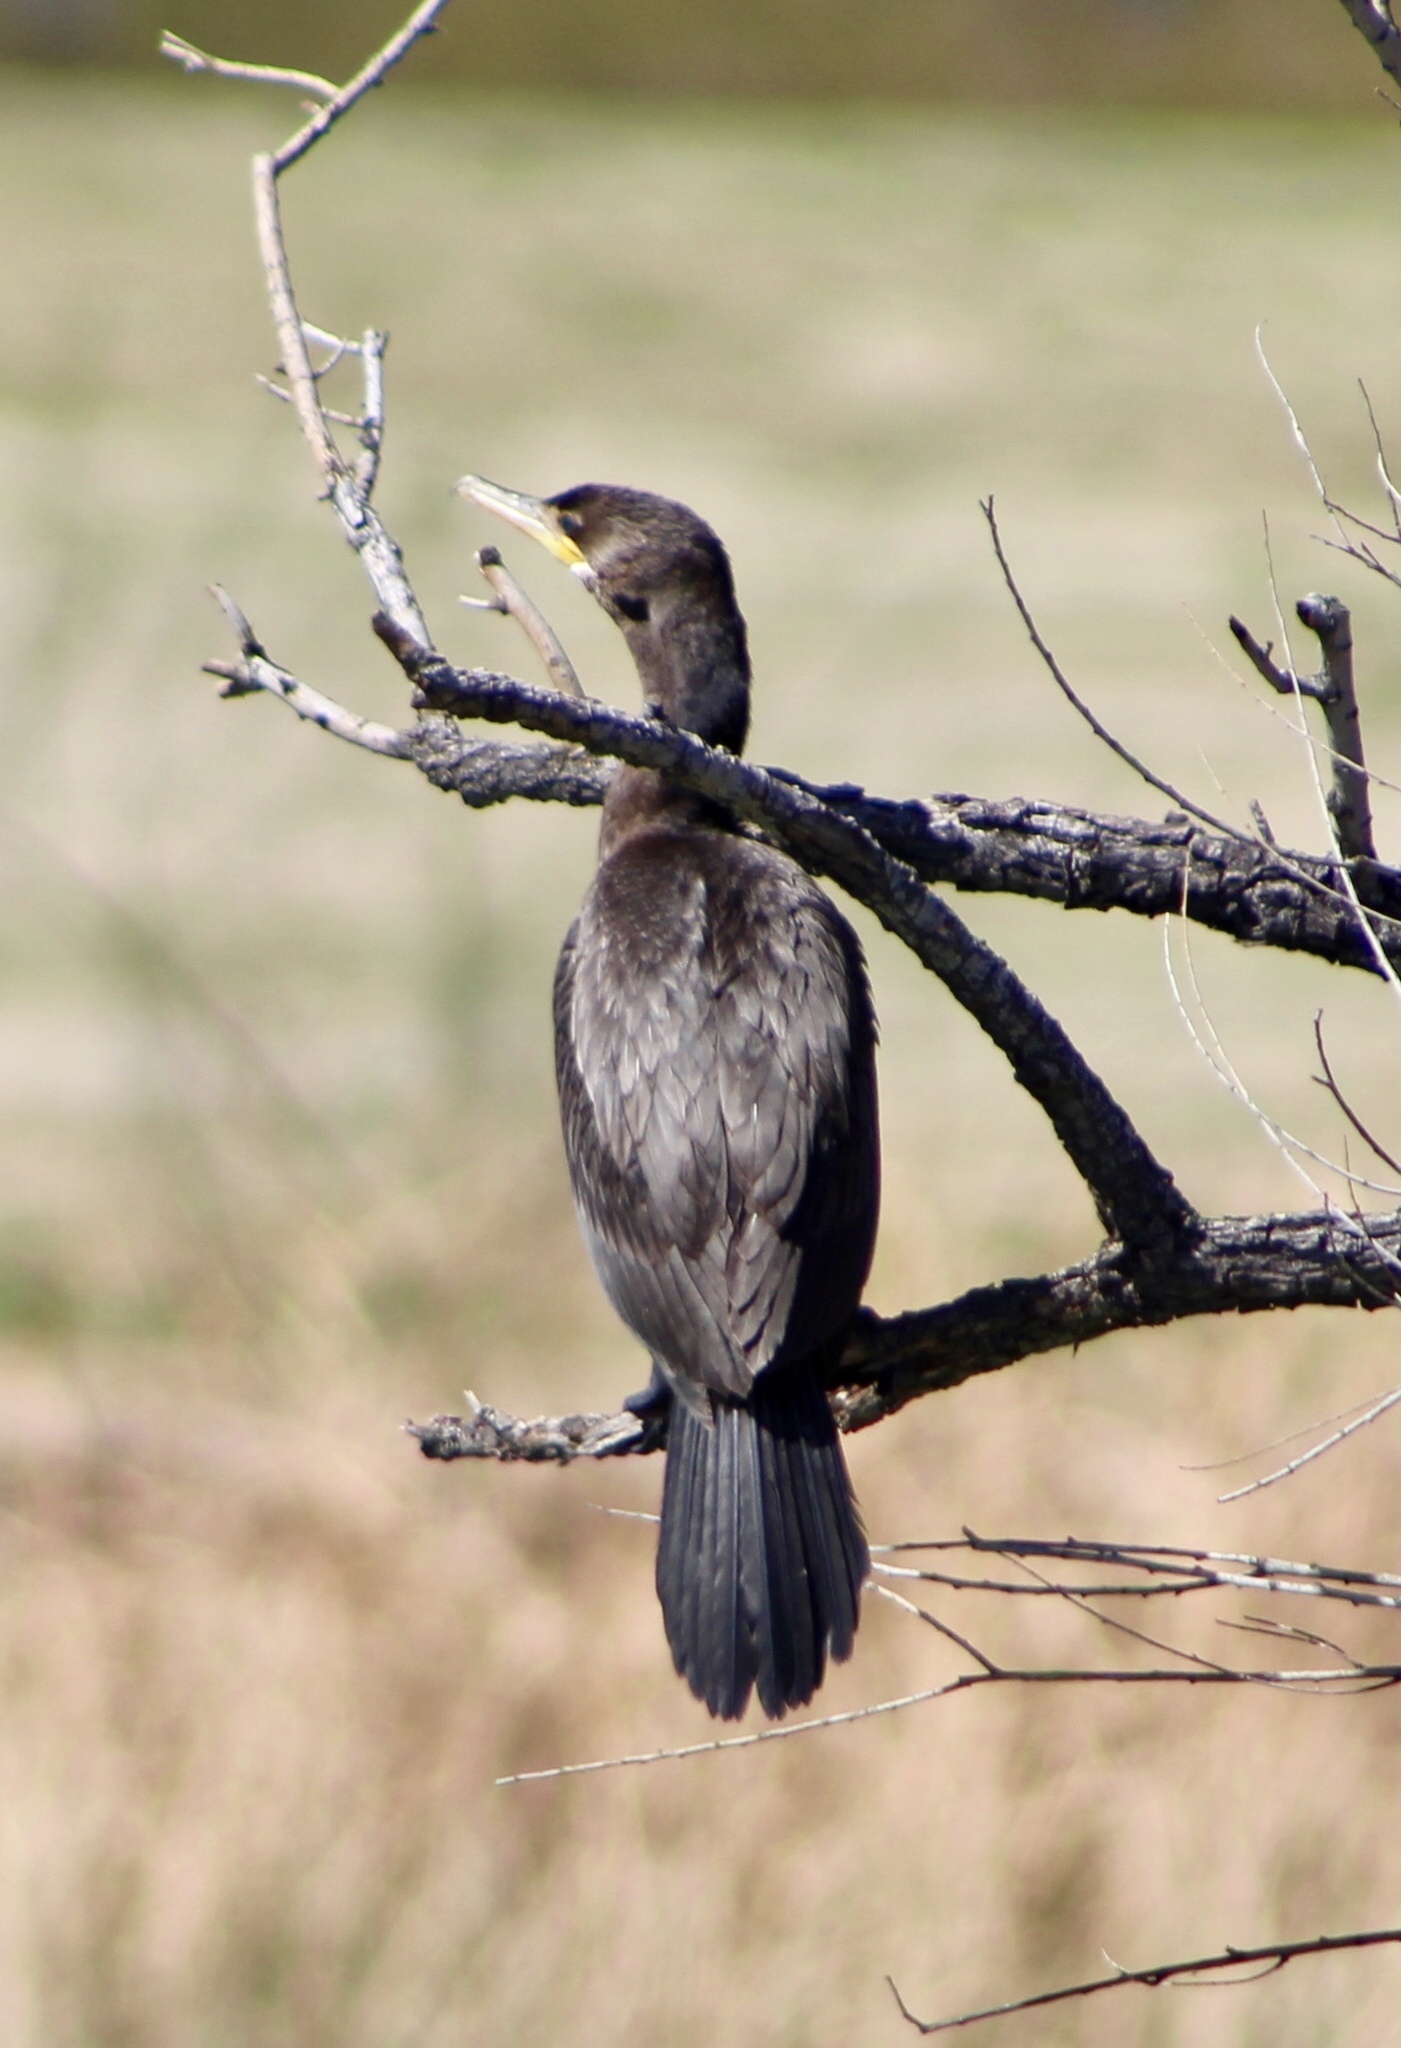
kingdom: Animalia
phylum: Chordata
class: Aves
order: Suliformes
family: Phalacrocoracidae
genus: Phalacrocorax
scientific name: Phalacrocorax brasilianus
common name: Neotropic cormorant
